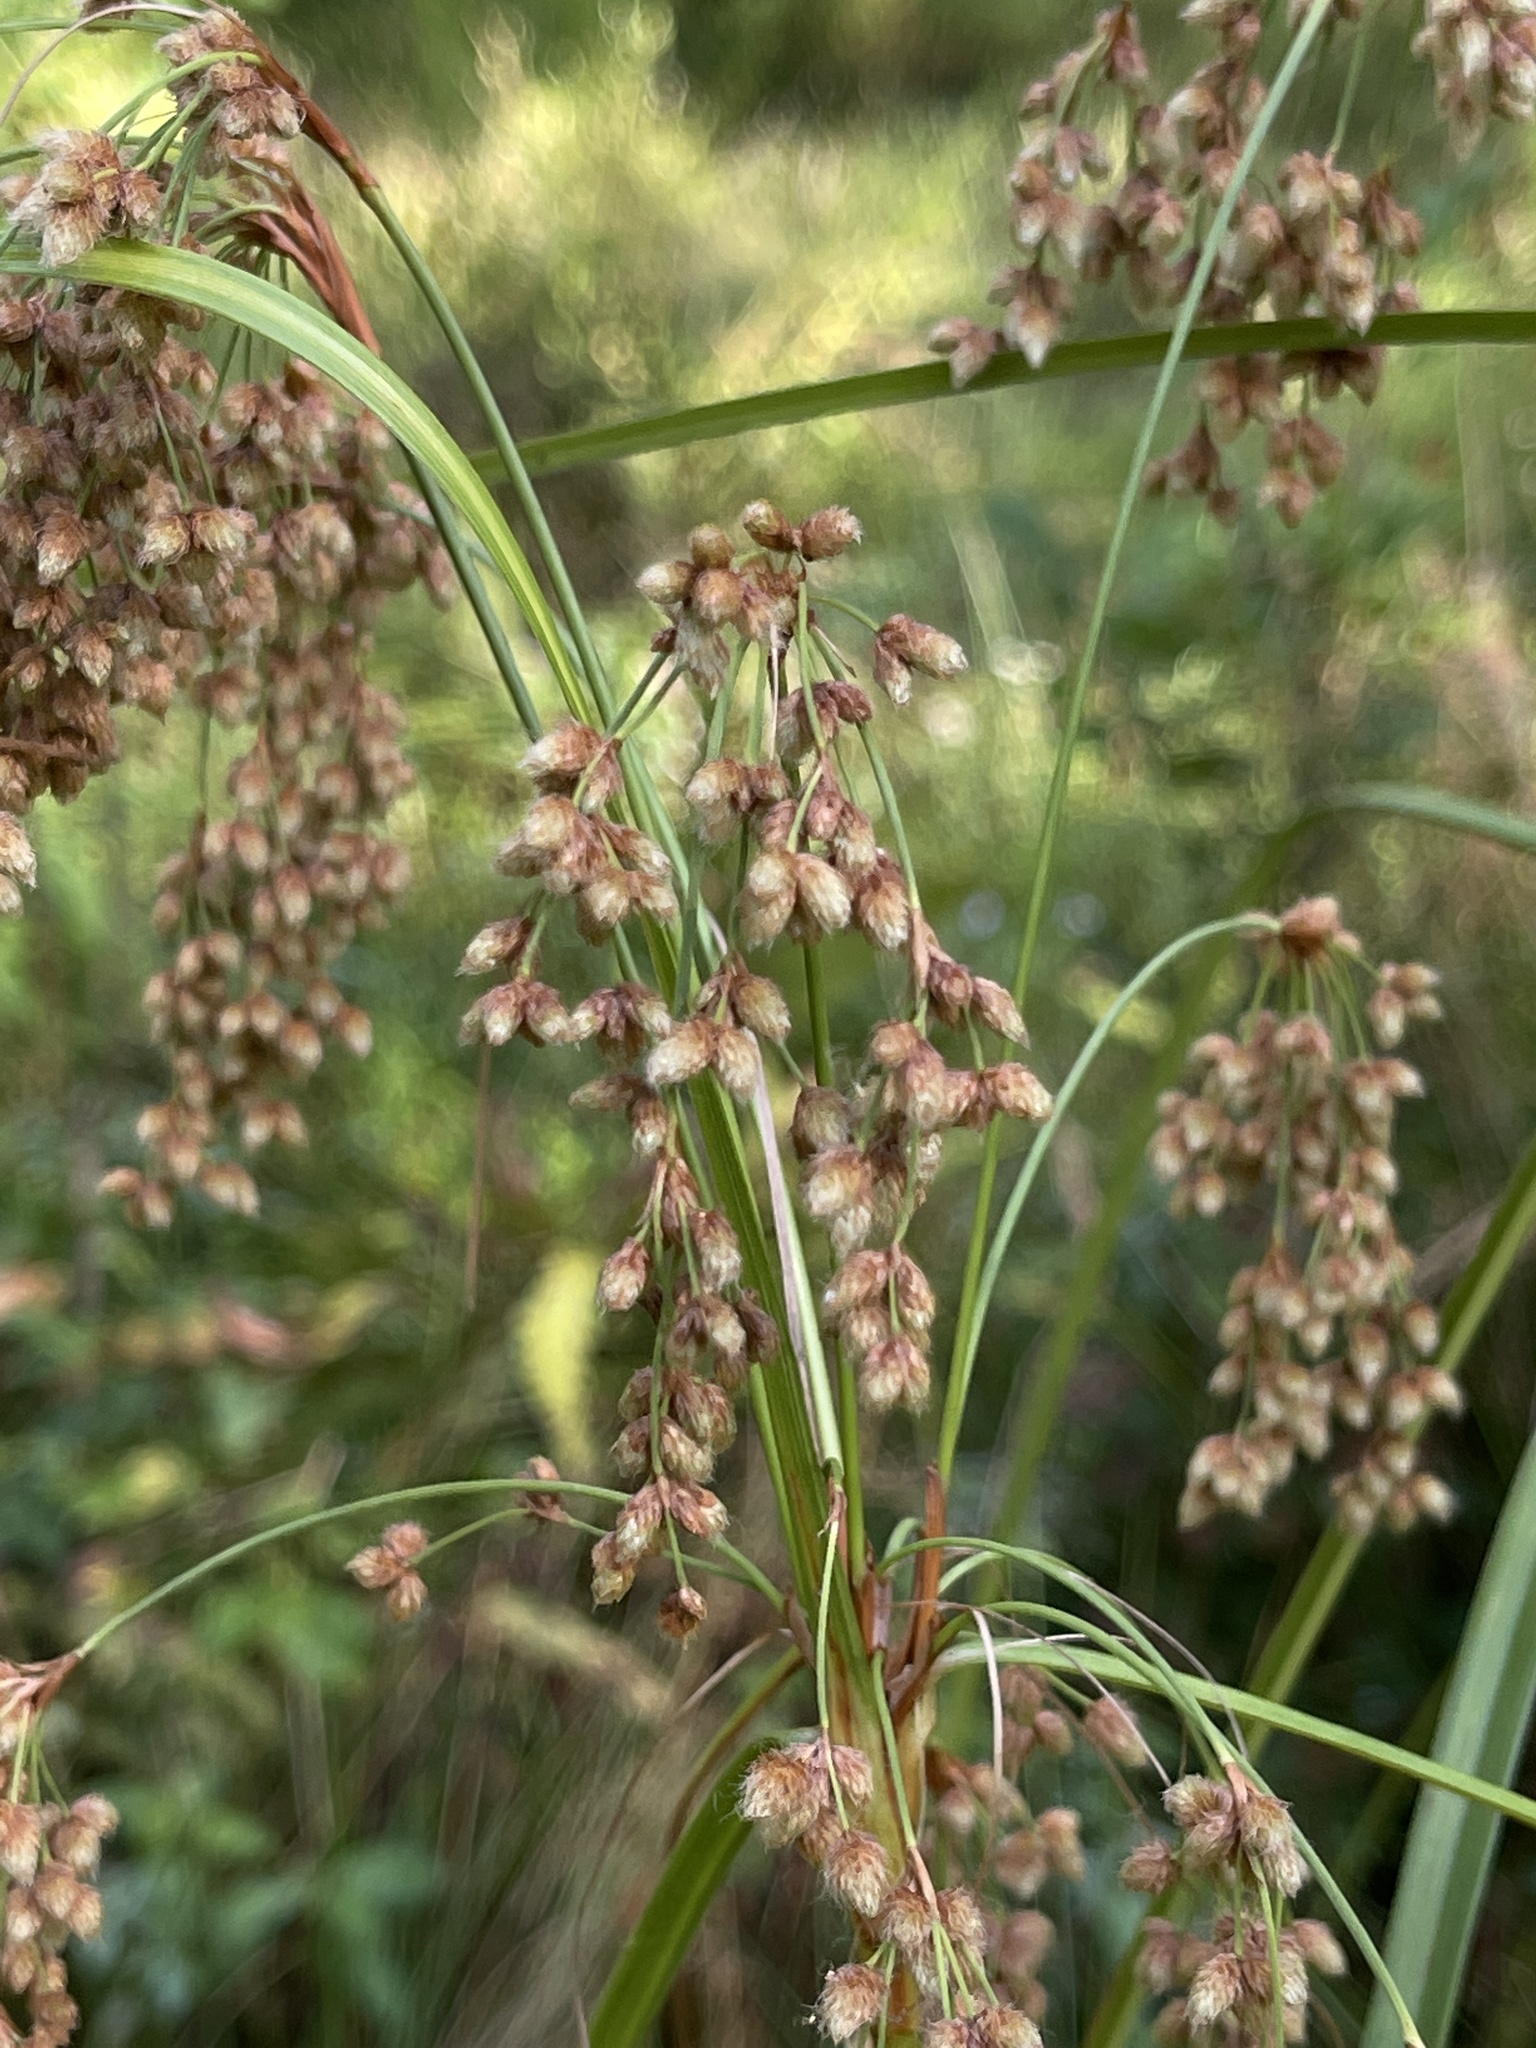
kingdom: Plantae
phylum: Tracheophyta
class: Liliopsida
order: Poales
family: Cyperaceae
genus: Scirpus
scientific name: Scirpus cyperinus
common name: Black-sheathed bulrush
